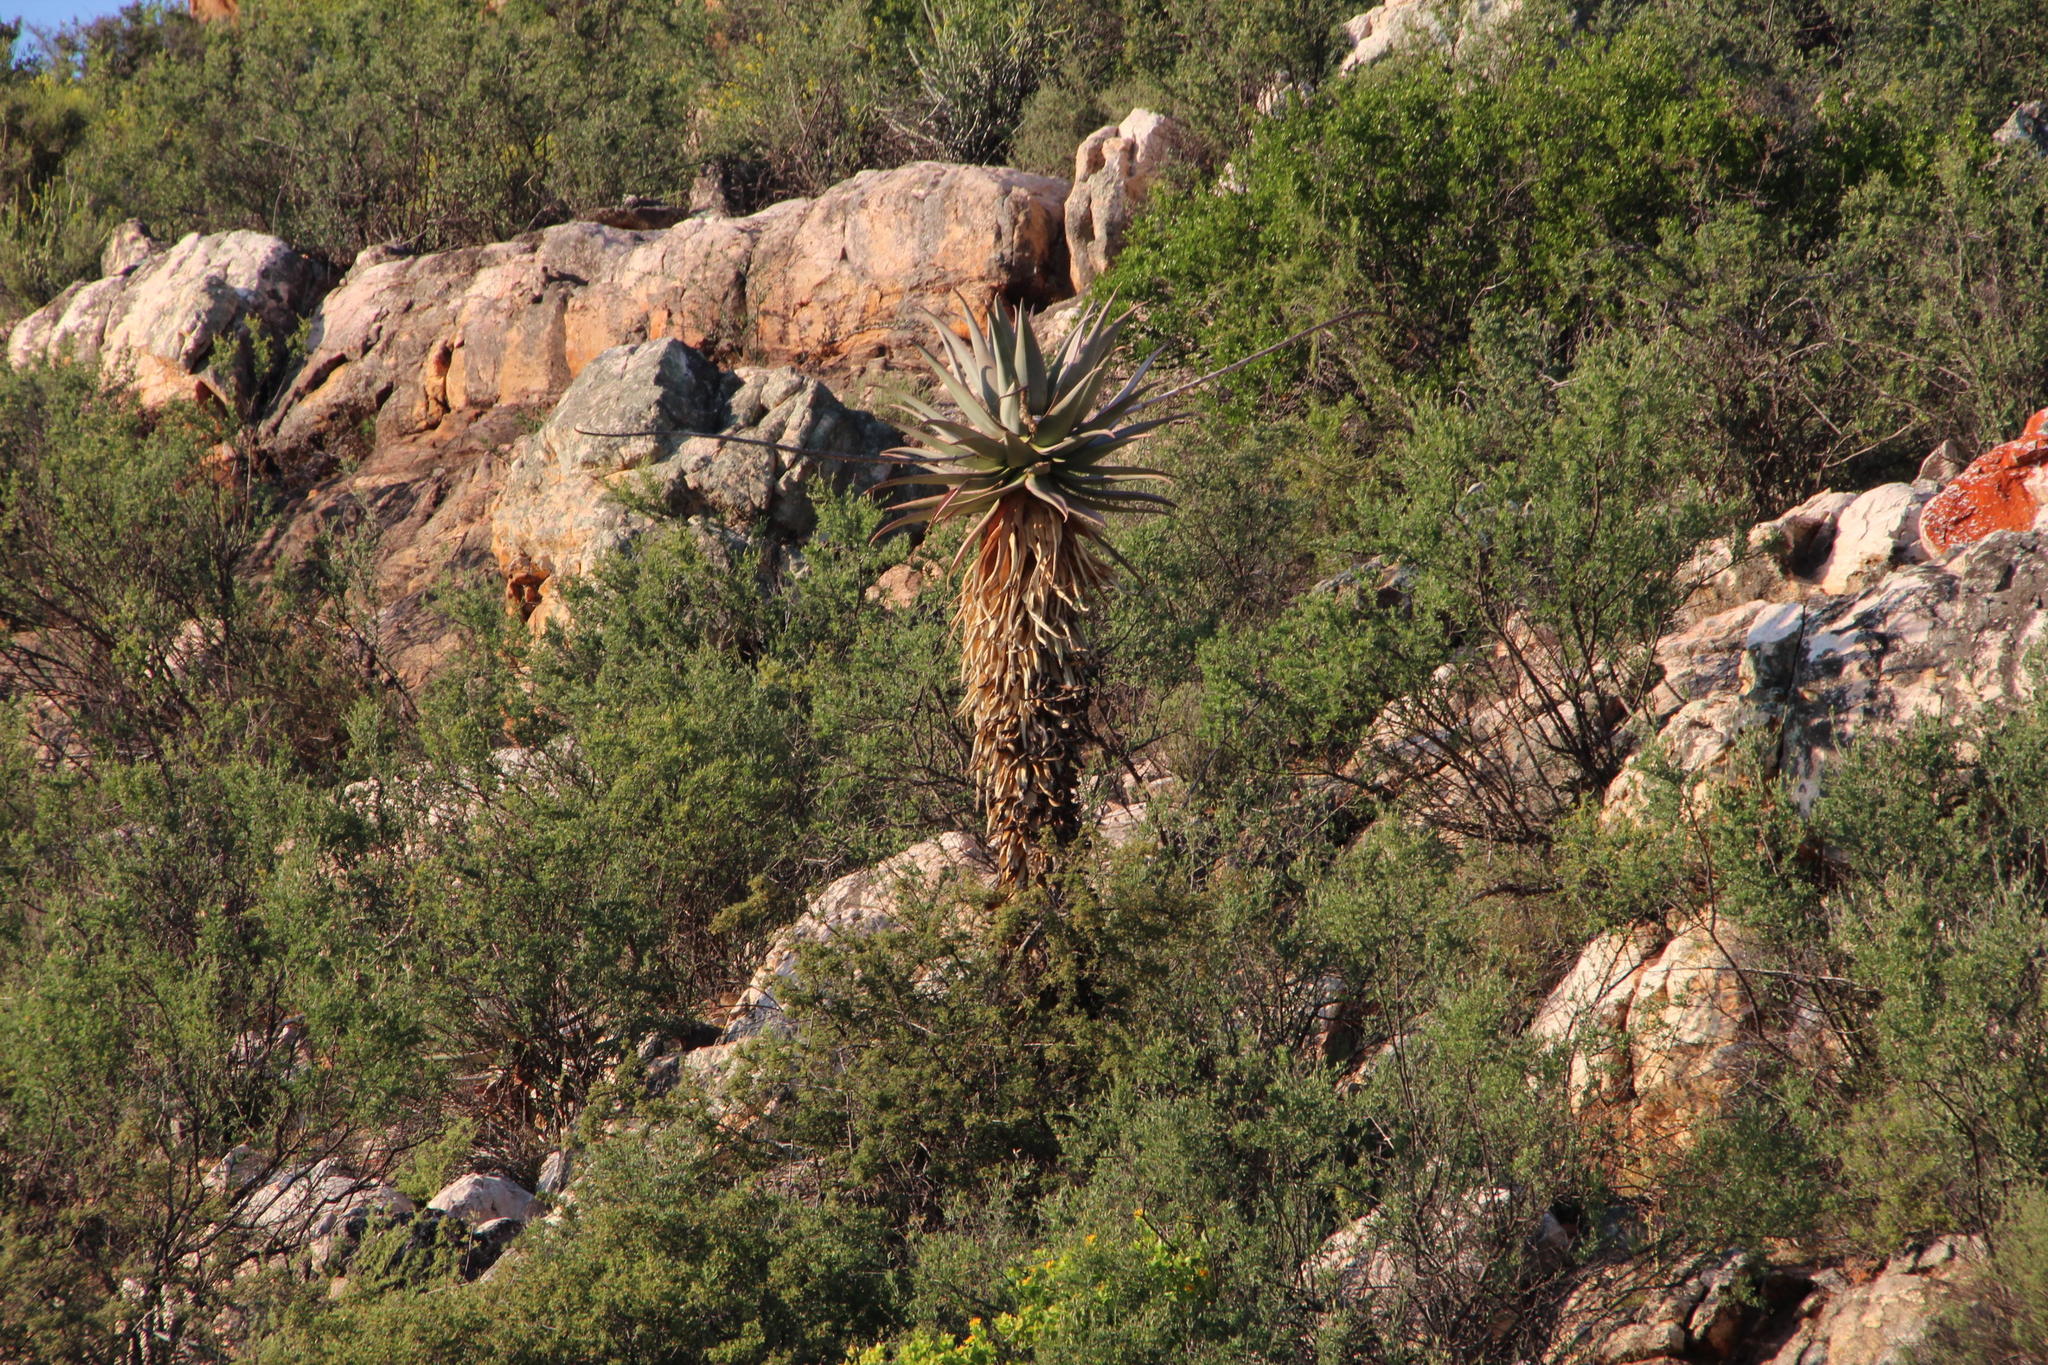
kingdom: Plantae
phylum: Tracheophyta
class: Liliopsida
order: Asparagales
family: Asphodelaceae
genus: Aloe
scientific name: Aloe comosa
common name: Clanwilliam aloe
